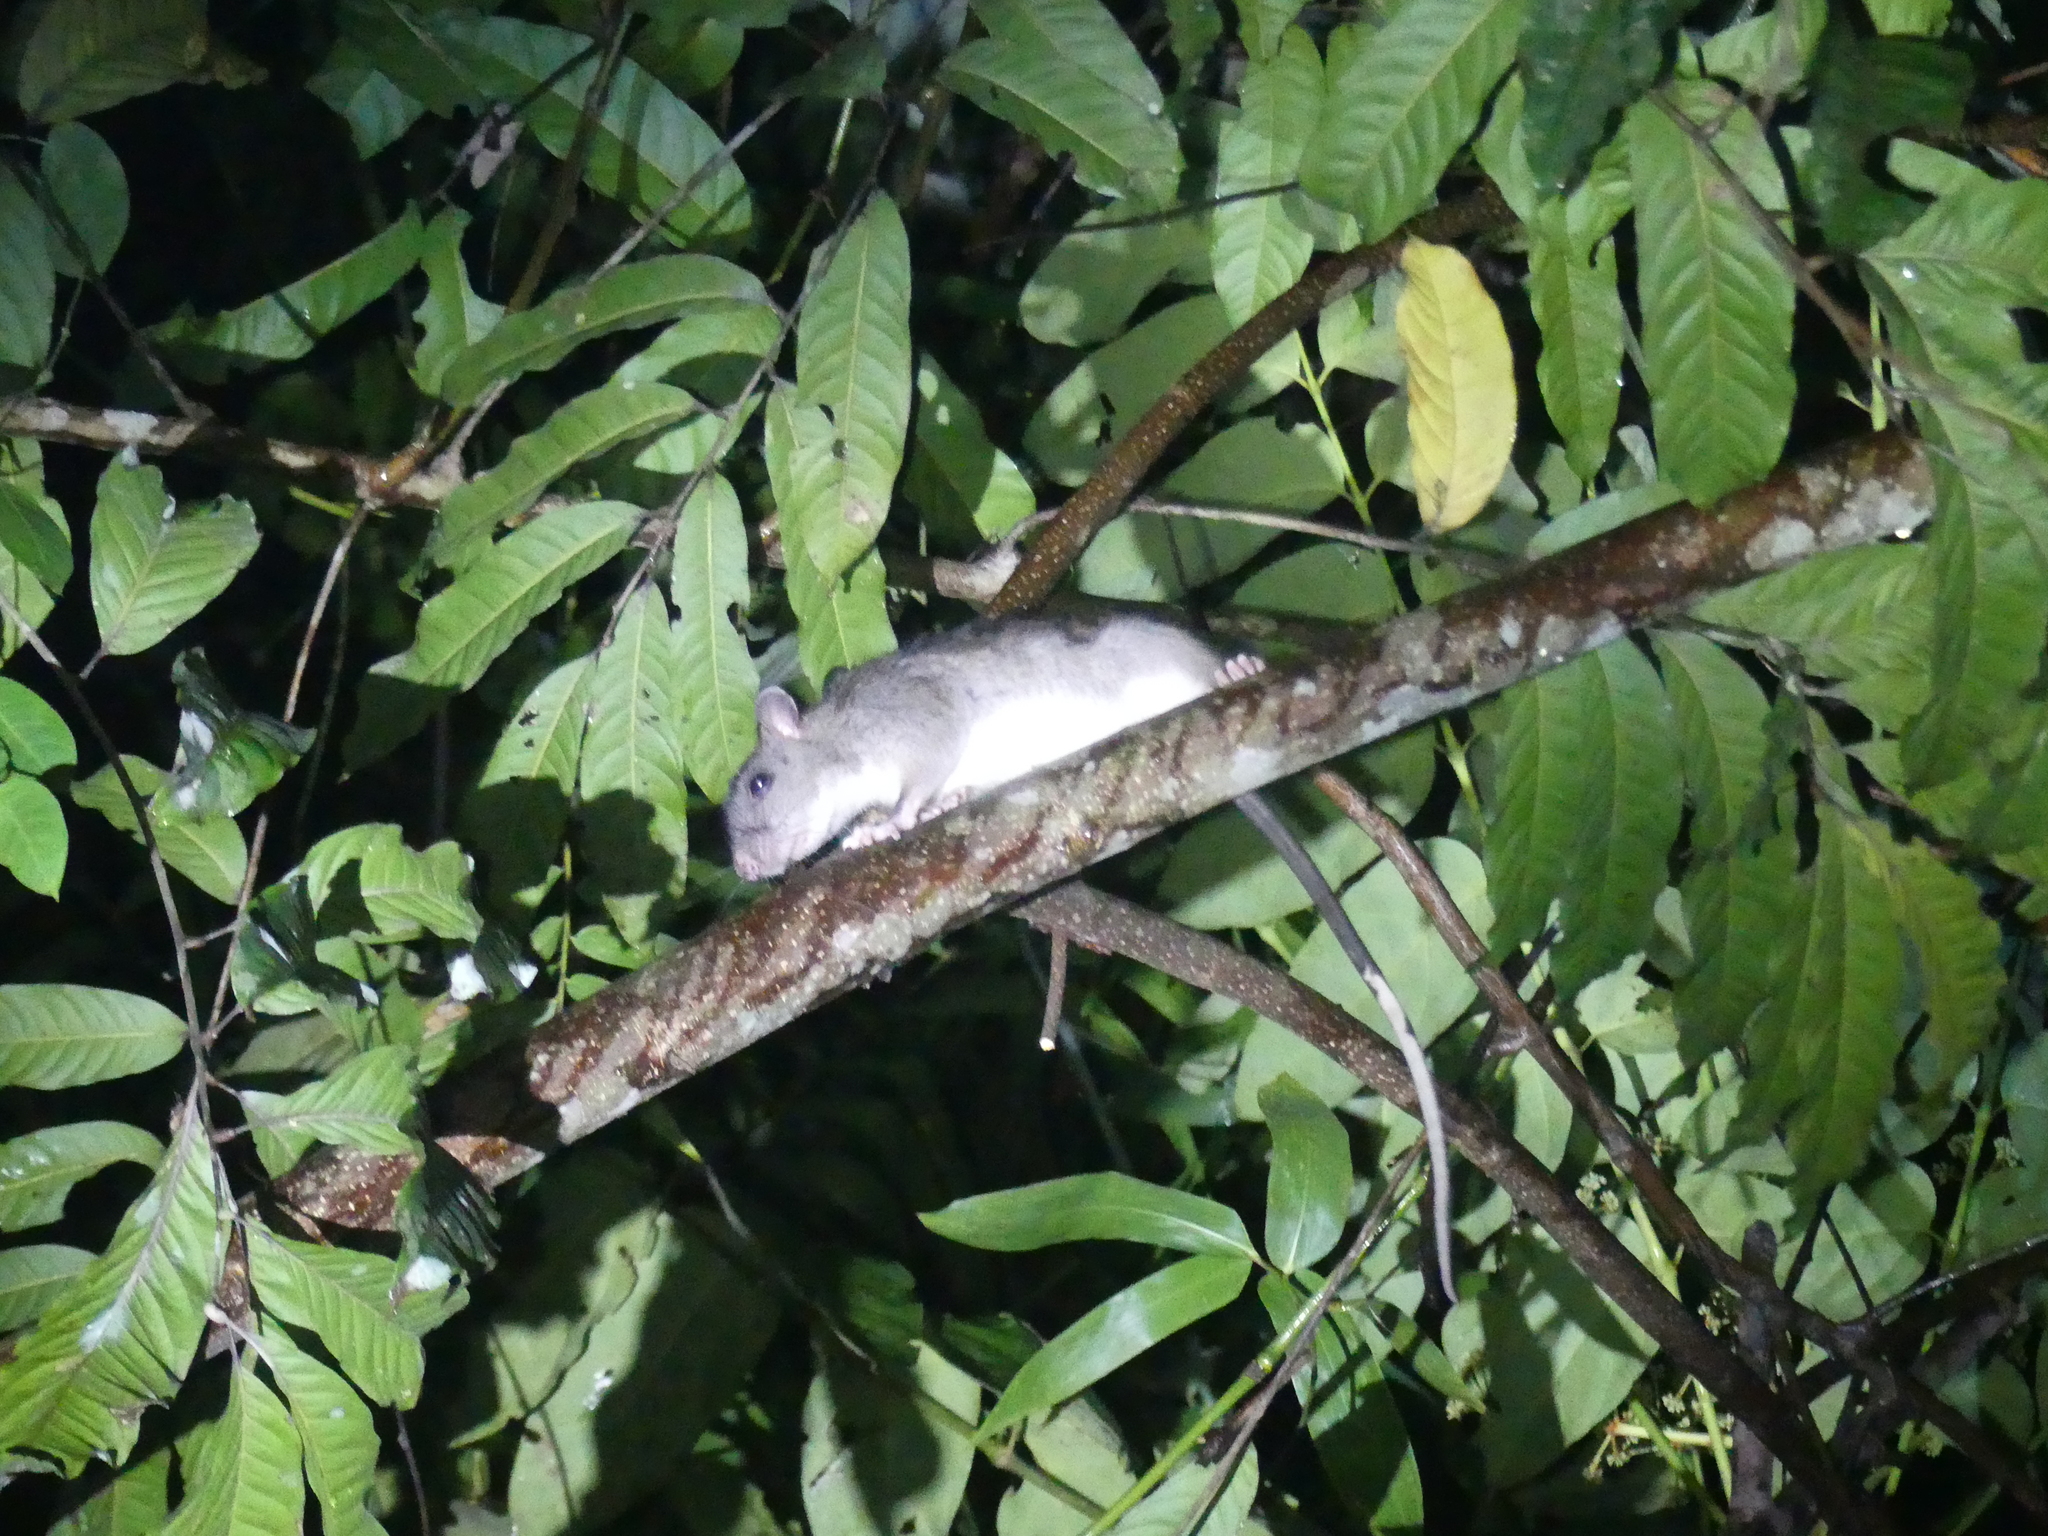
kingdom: Animalia
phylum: Chordata
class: Mammalia
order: Rodentia
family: Muridae
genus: Uromys
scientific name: Uromys caudimaculatus
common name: Giant white-tailed uromys
